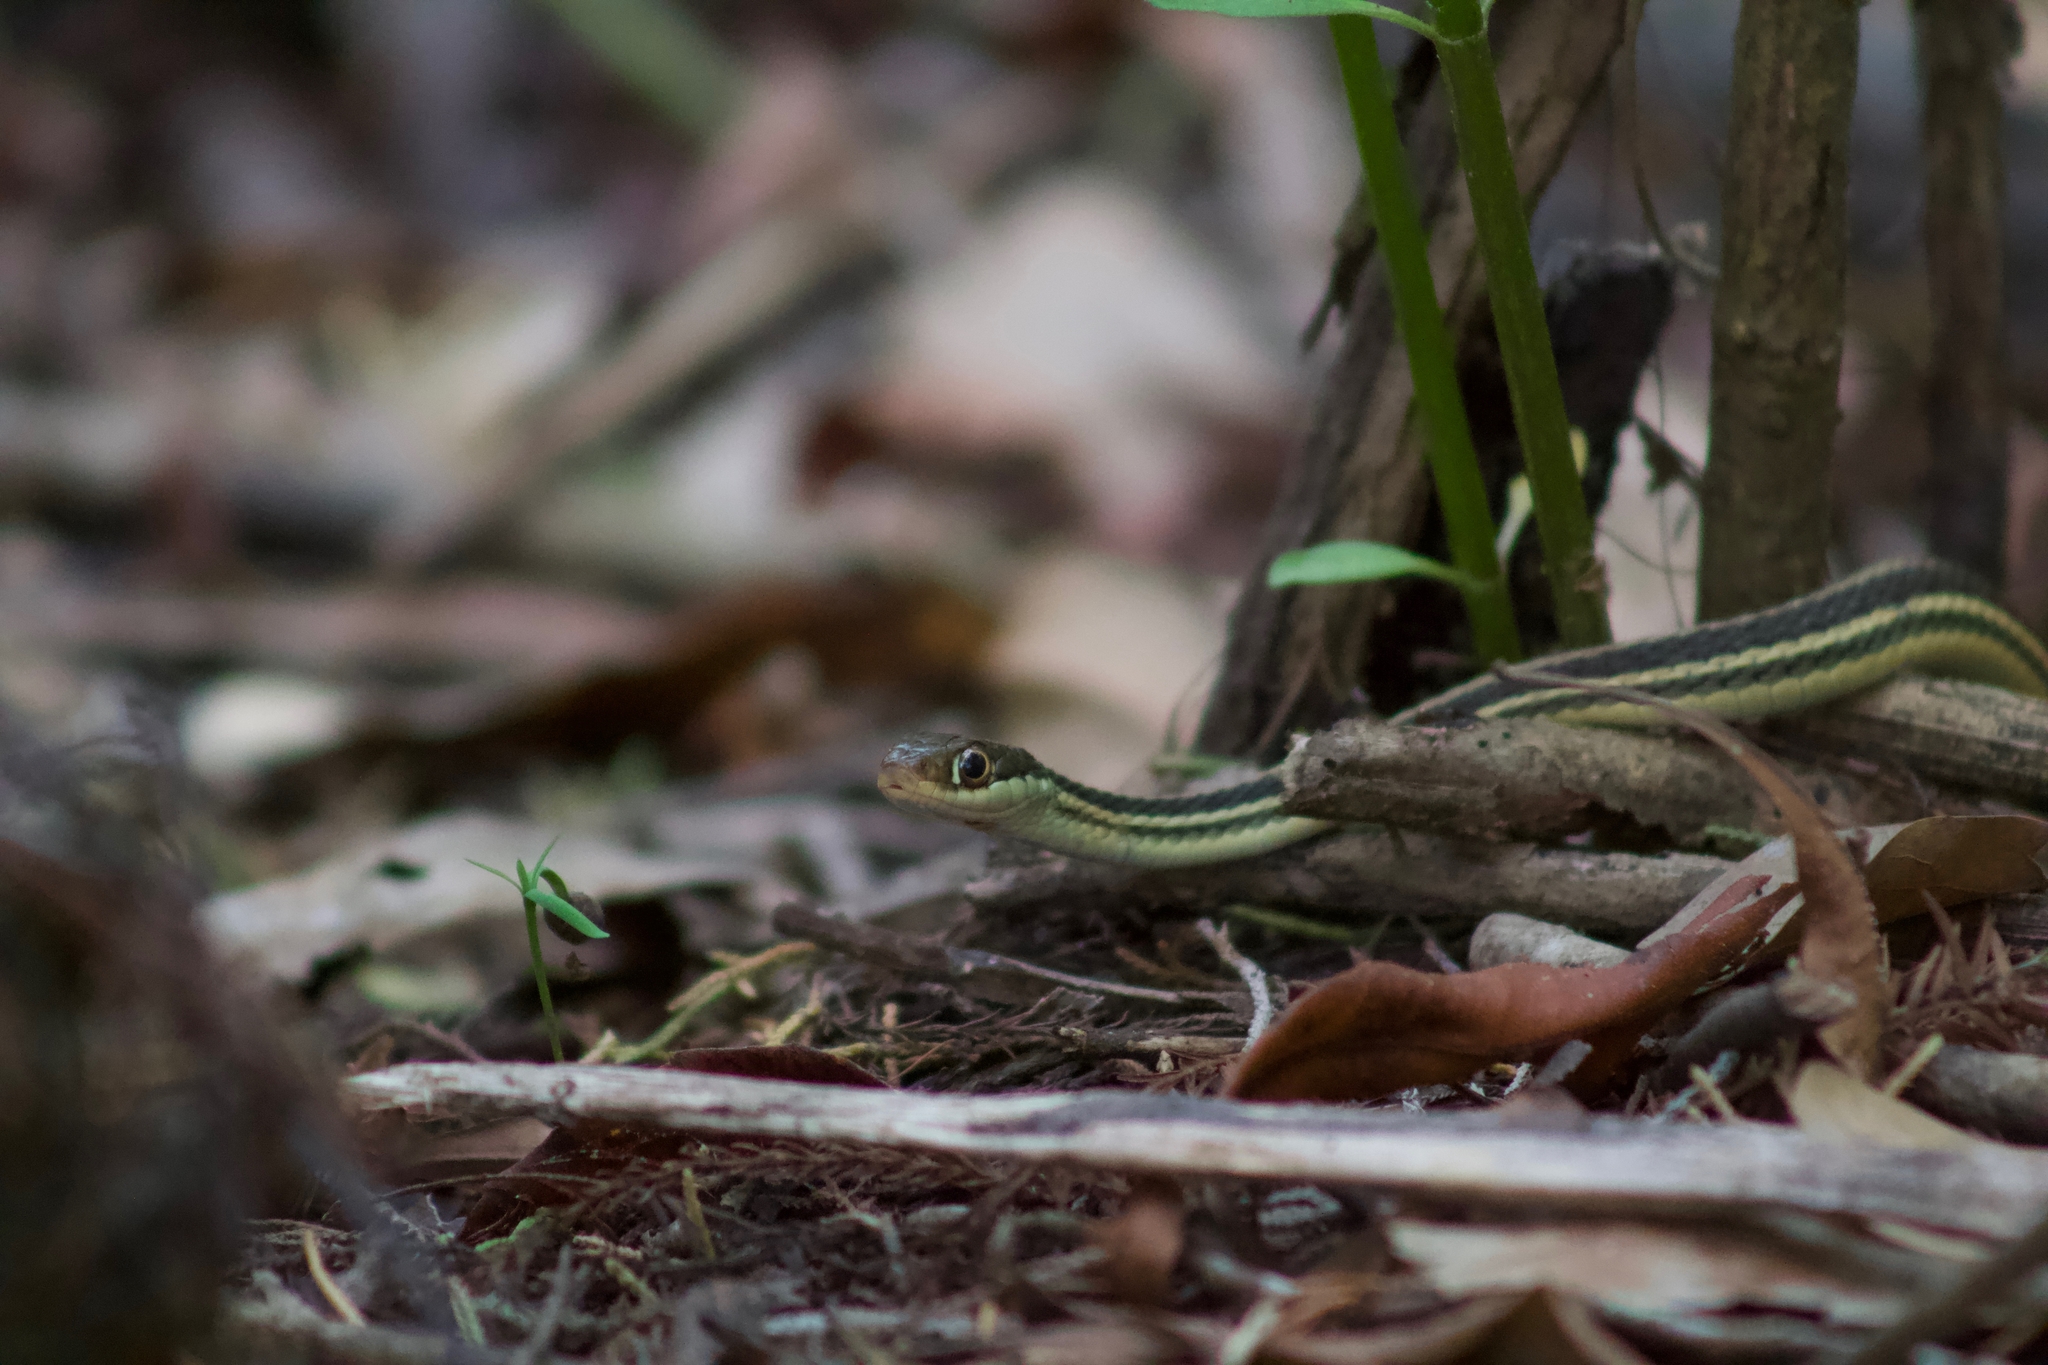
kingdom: Animalia
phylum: Chordata
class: Squamata
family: Colubridae
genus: Thamnophis
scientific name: Thamnophis proximus
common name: Western ribbon snake
